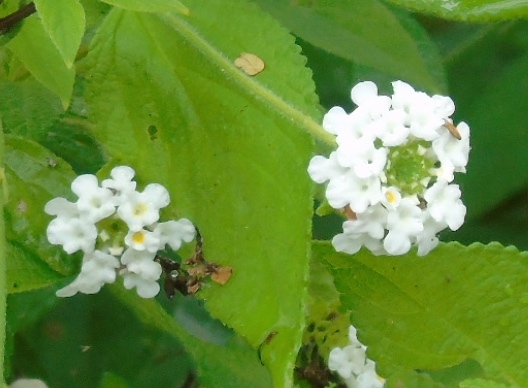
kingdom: Plantae
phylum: Tracheophyta
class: Magnoliopsida
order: Lamiales
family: Verbenaceae
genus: Lantana
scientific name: Lantana velutina
